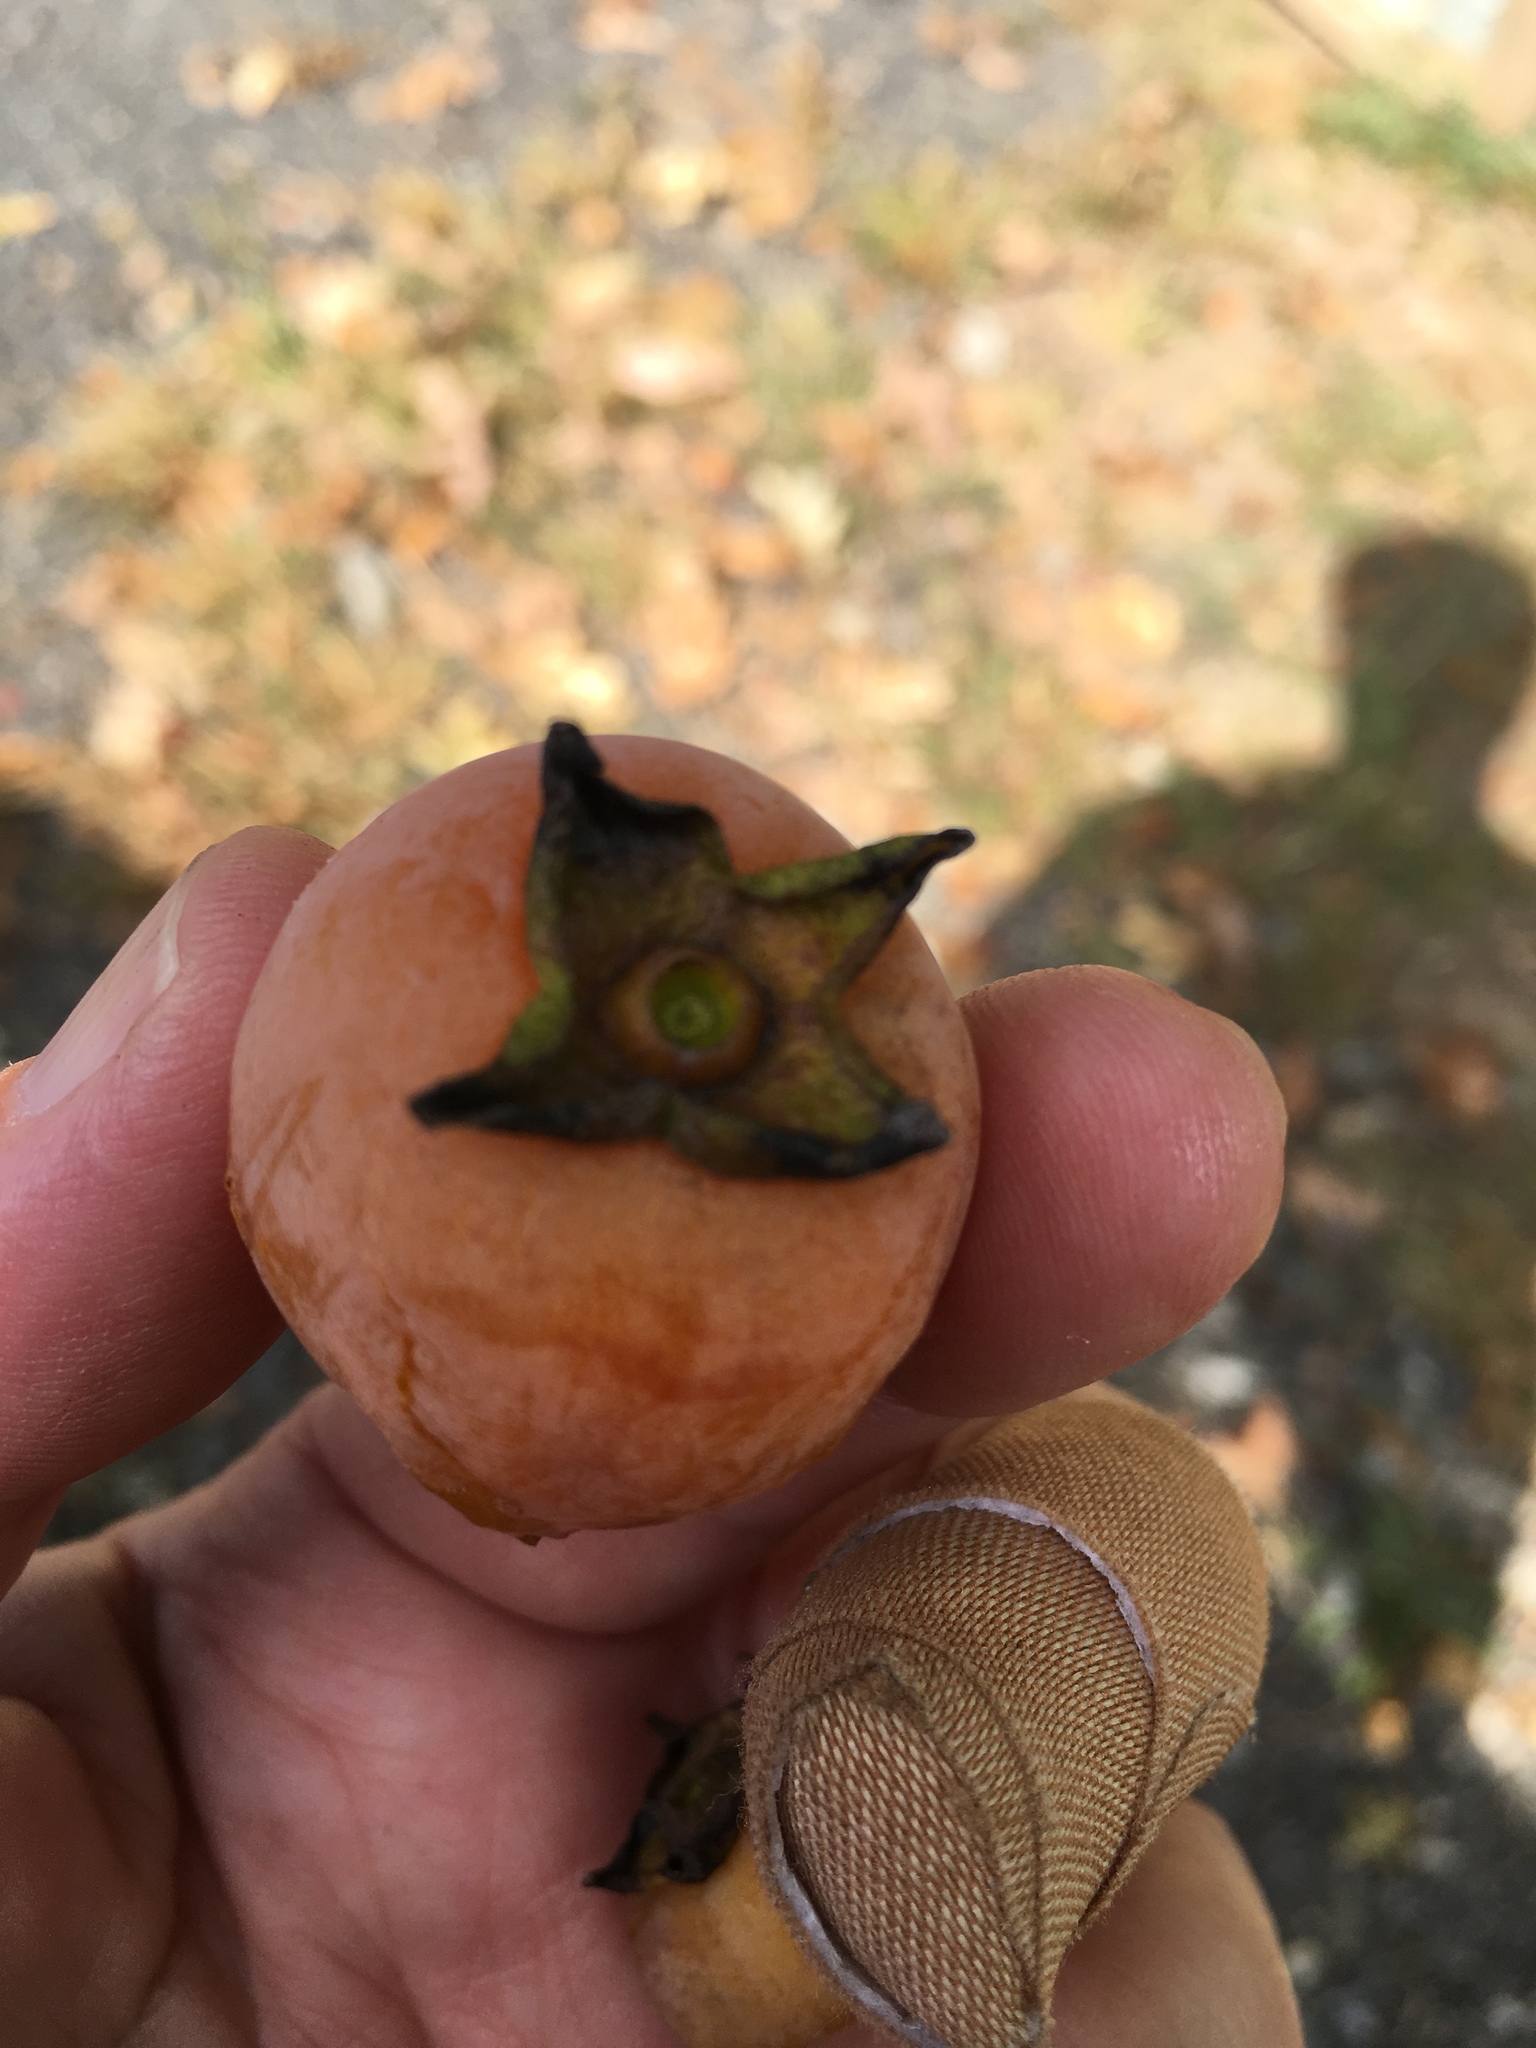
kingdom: Plantae
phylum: Tracheophyta
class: Magnoliopsida
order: Ericales
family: Ebenaceae
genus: Diospyros
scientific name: Diospyros virginiana
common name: Persimmon
